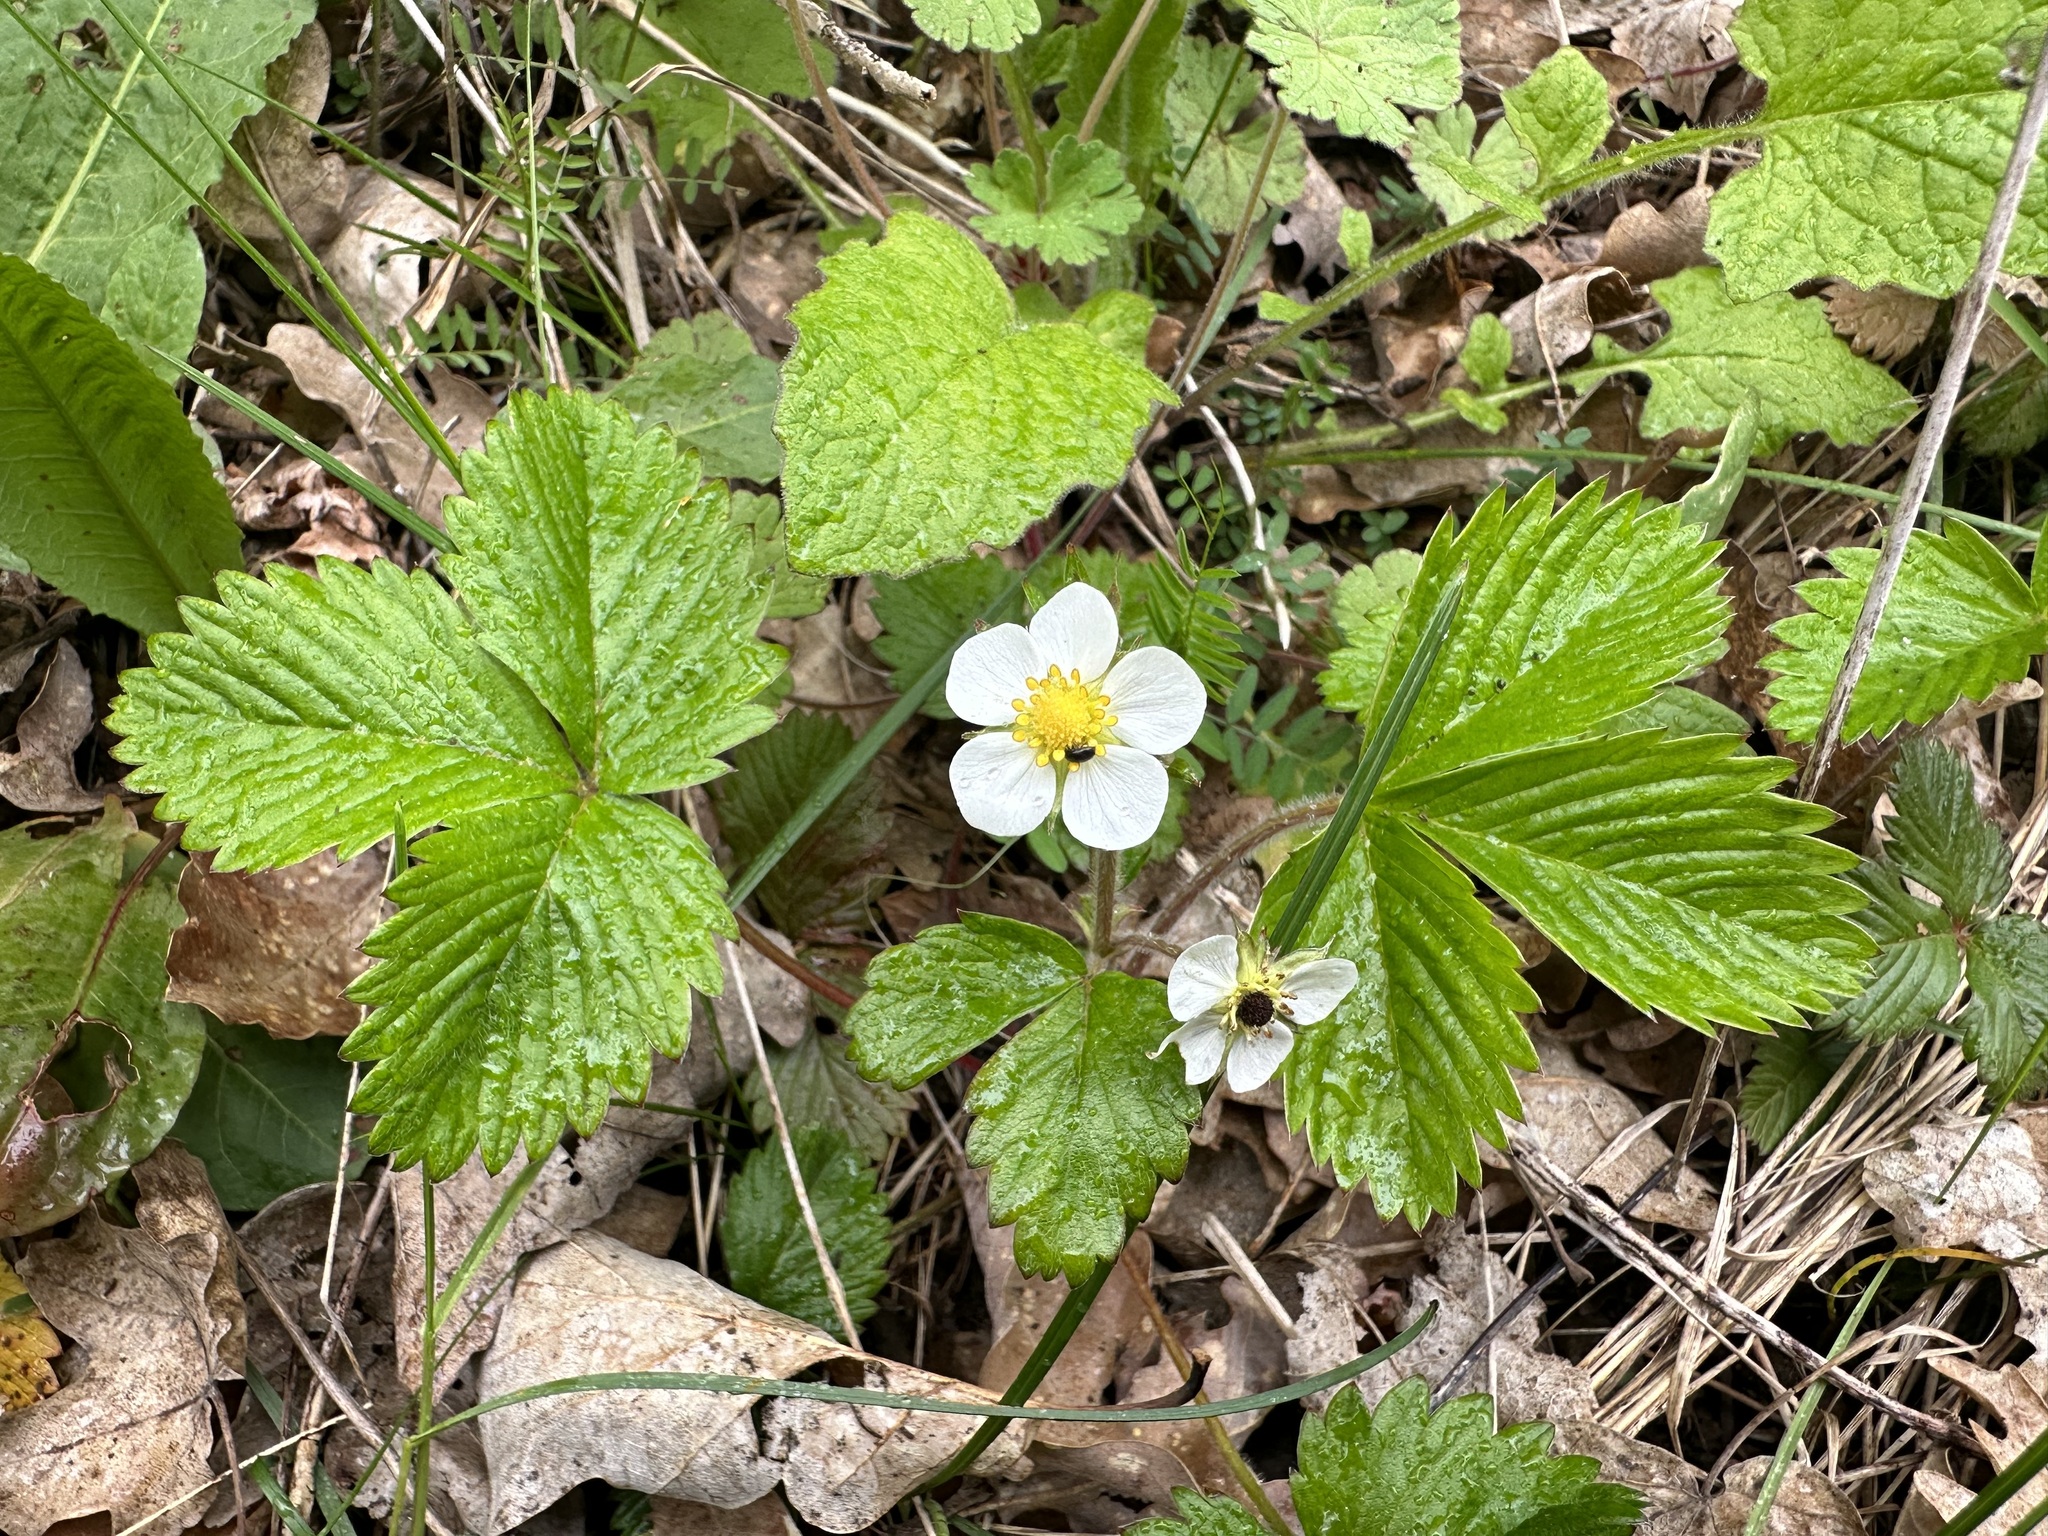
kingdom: Plantae
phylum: Tracheophyta
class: Magnoliopsida
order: Rosales
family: Rosaceae
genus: Fragaria
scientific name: Fragaria vesca
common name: Wild strawberry
